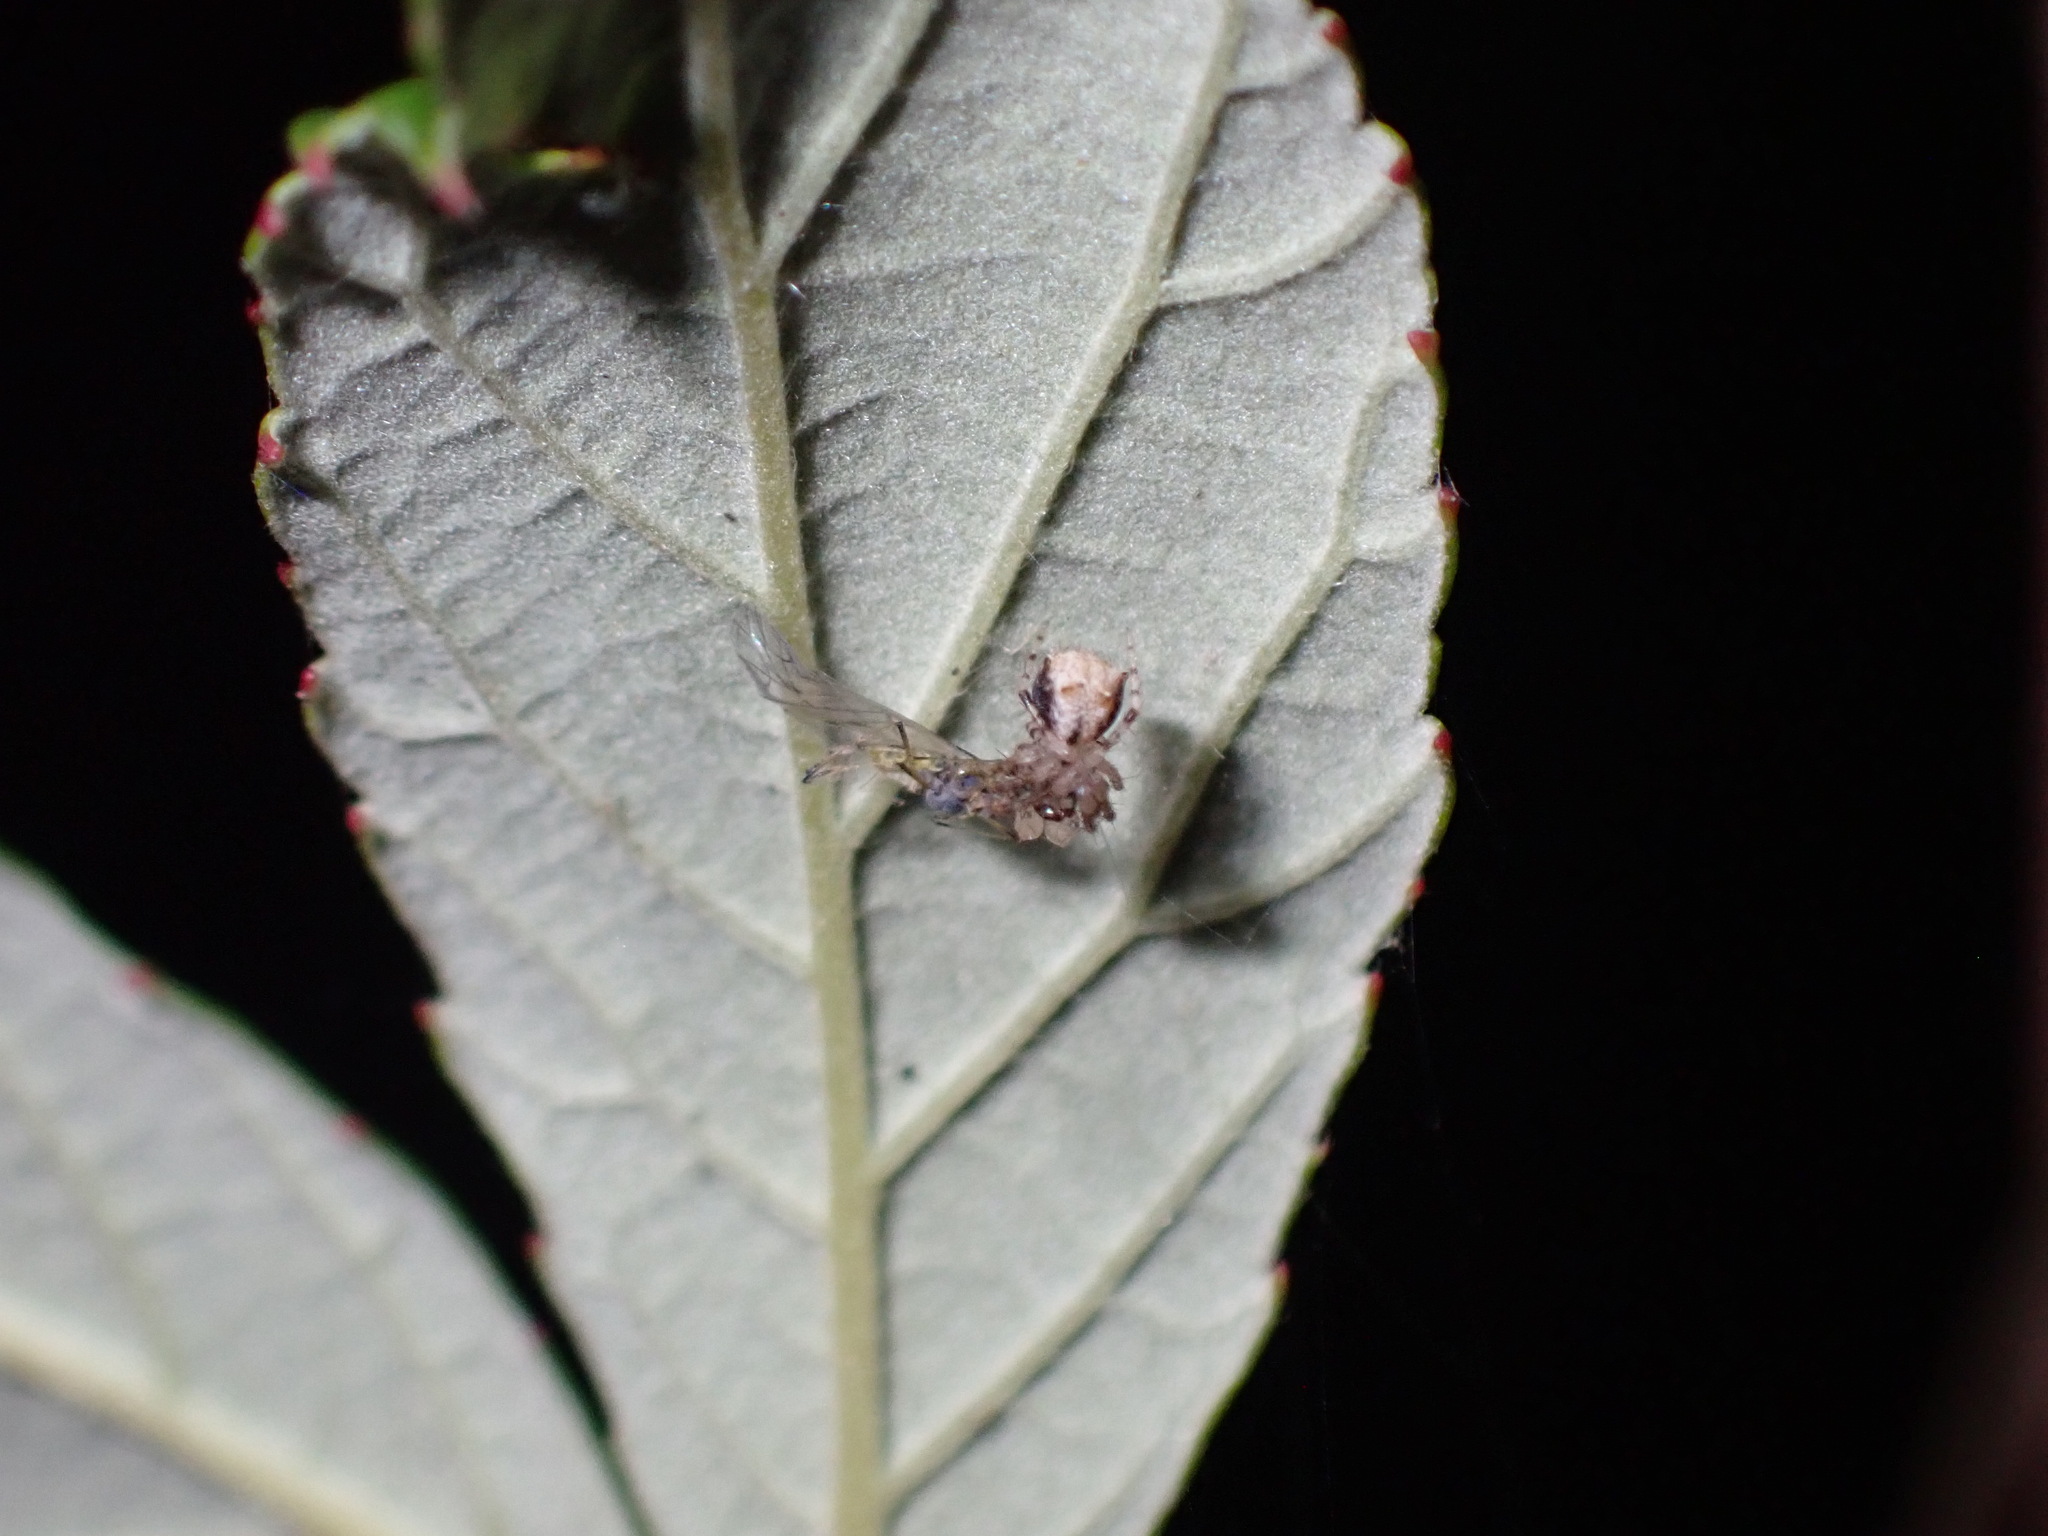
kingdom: Animalia
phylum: Arthropoda
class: Arachnida
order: Araneae
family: Mimetidae
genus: Ero
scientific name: Ero aphana
